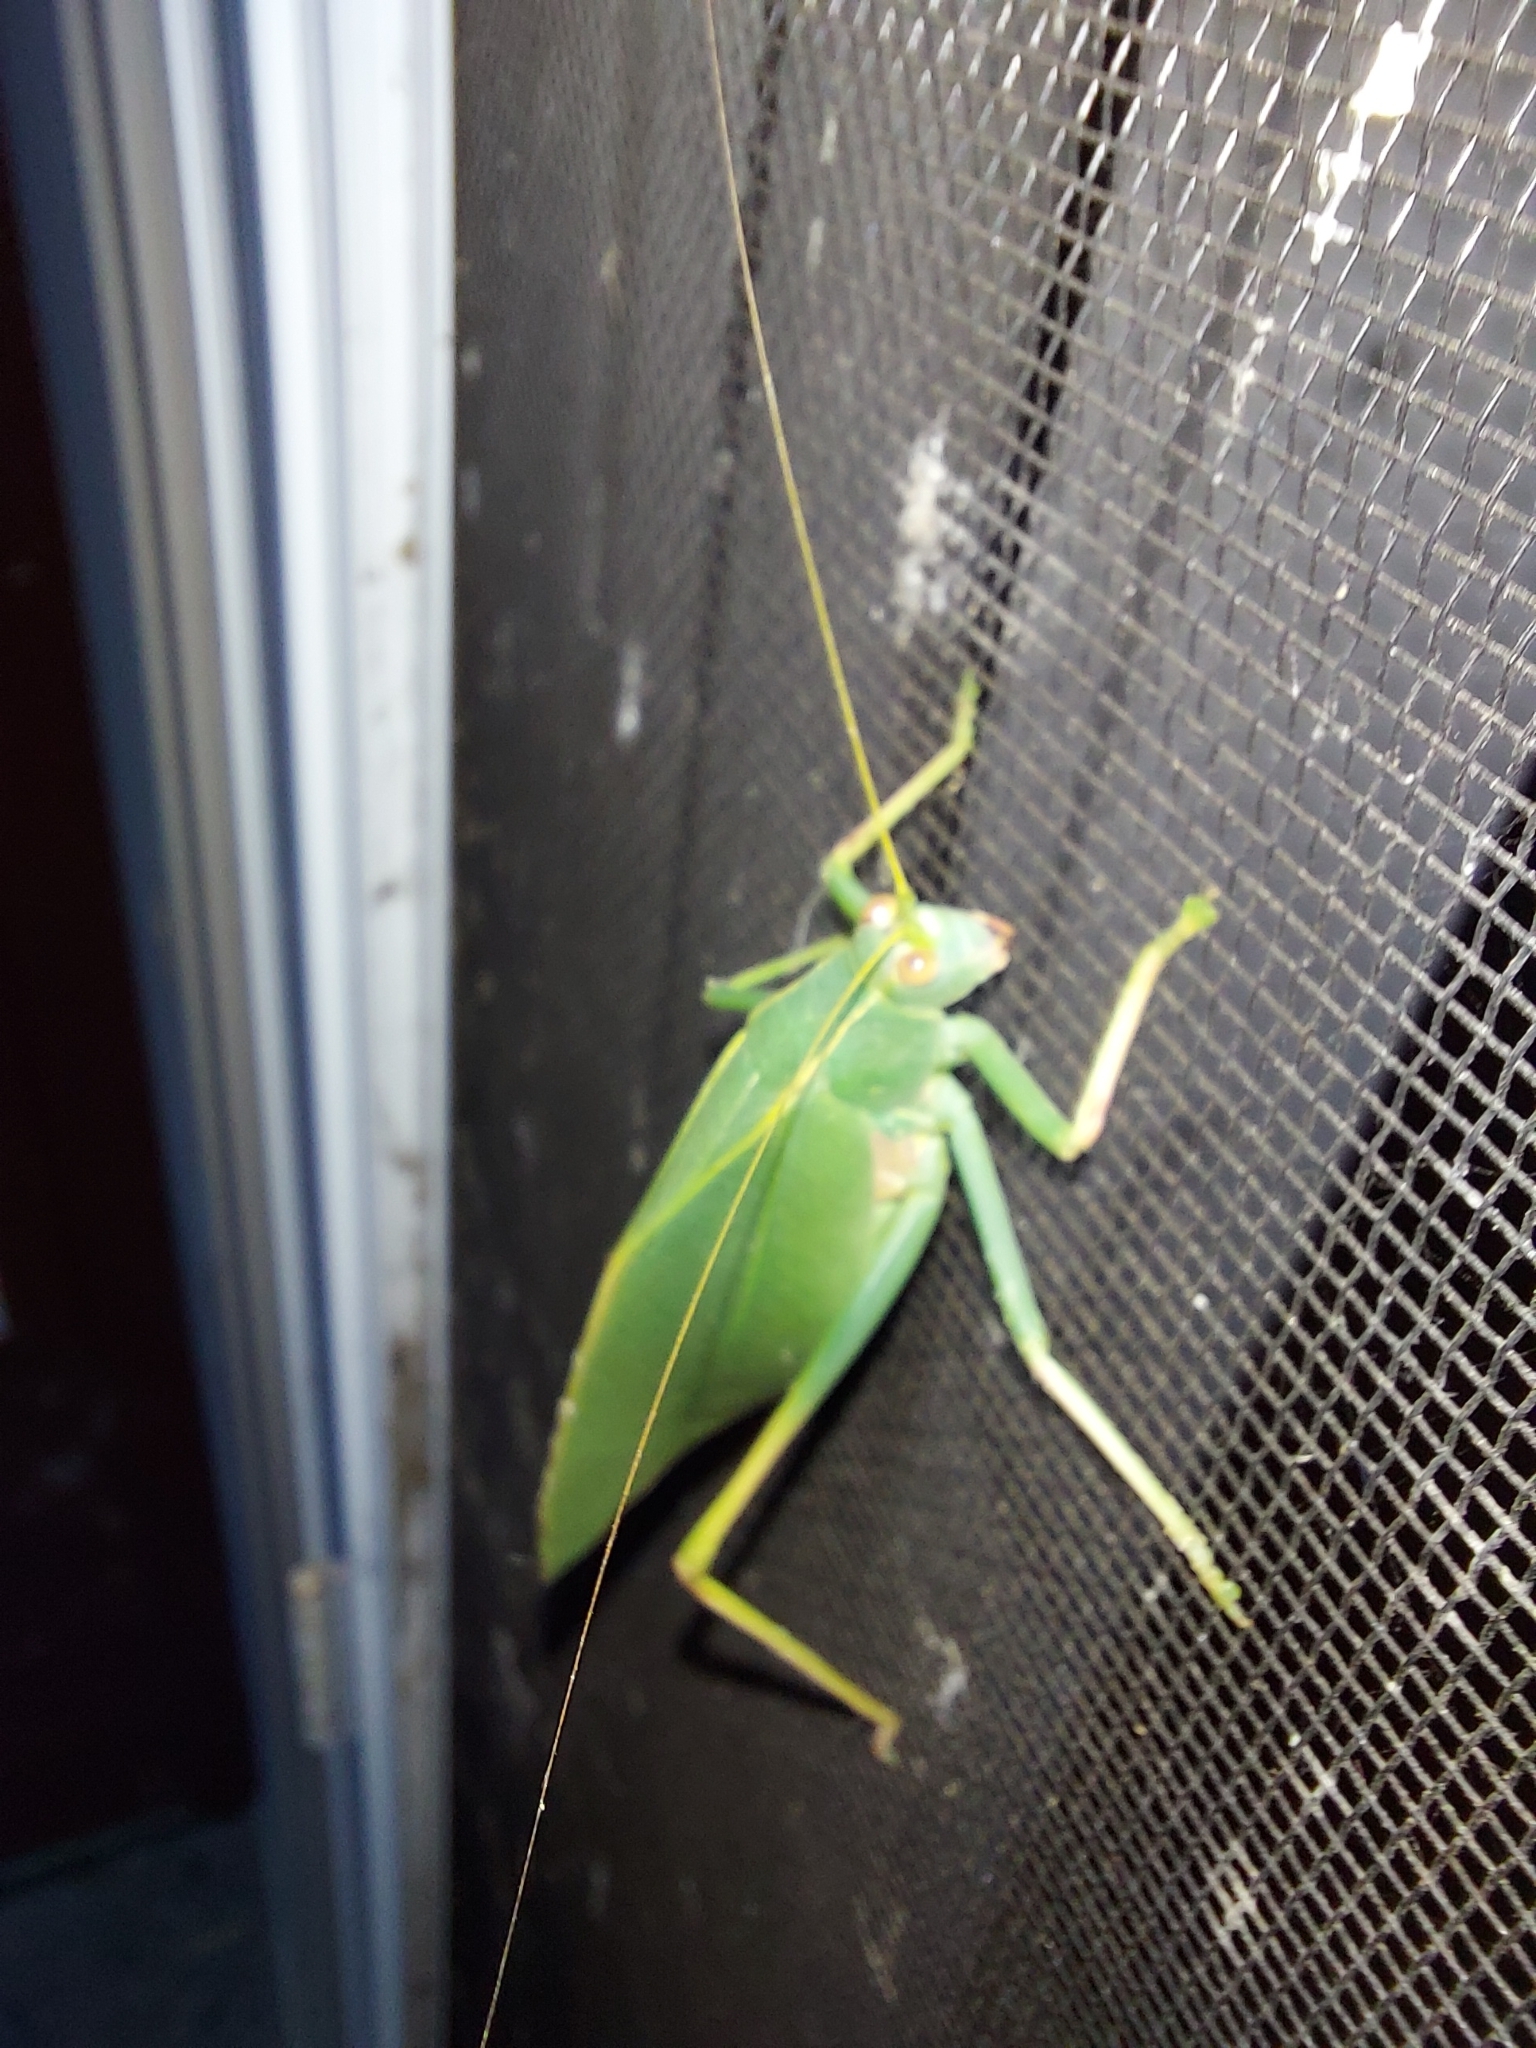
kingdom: Animalia
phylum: Arthropoda
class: Insecta
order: Orthoptera
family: Tettigoniidae
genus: Torbia
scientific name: Torbia viridissima
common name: Non-predaceous gum leaf katydid
